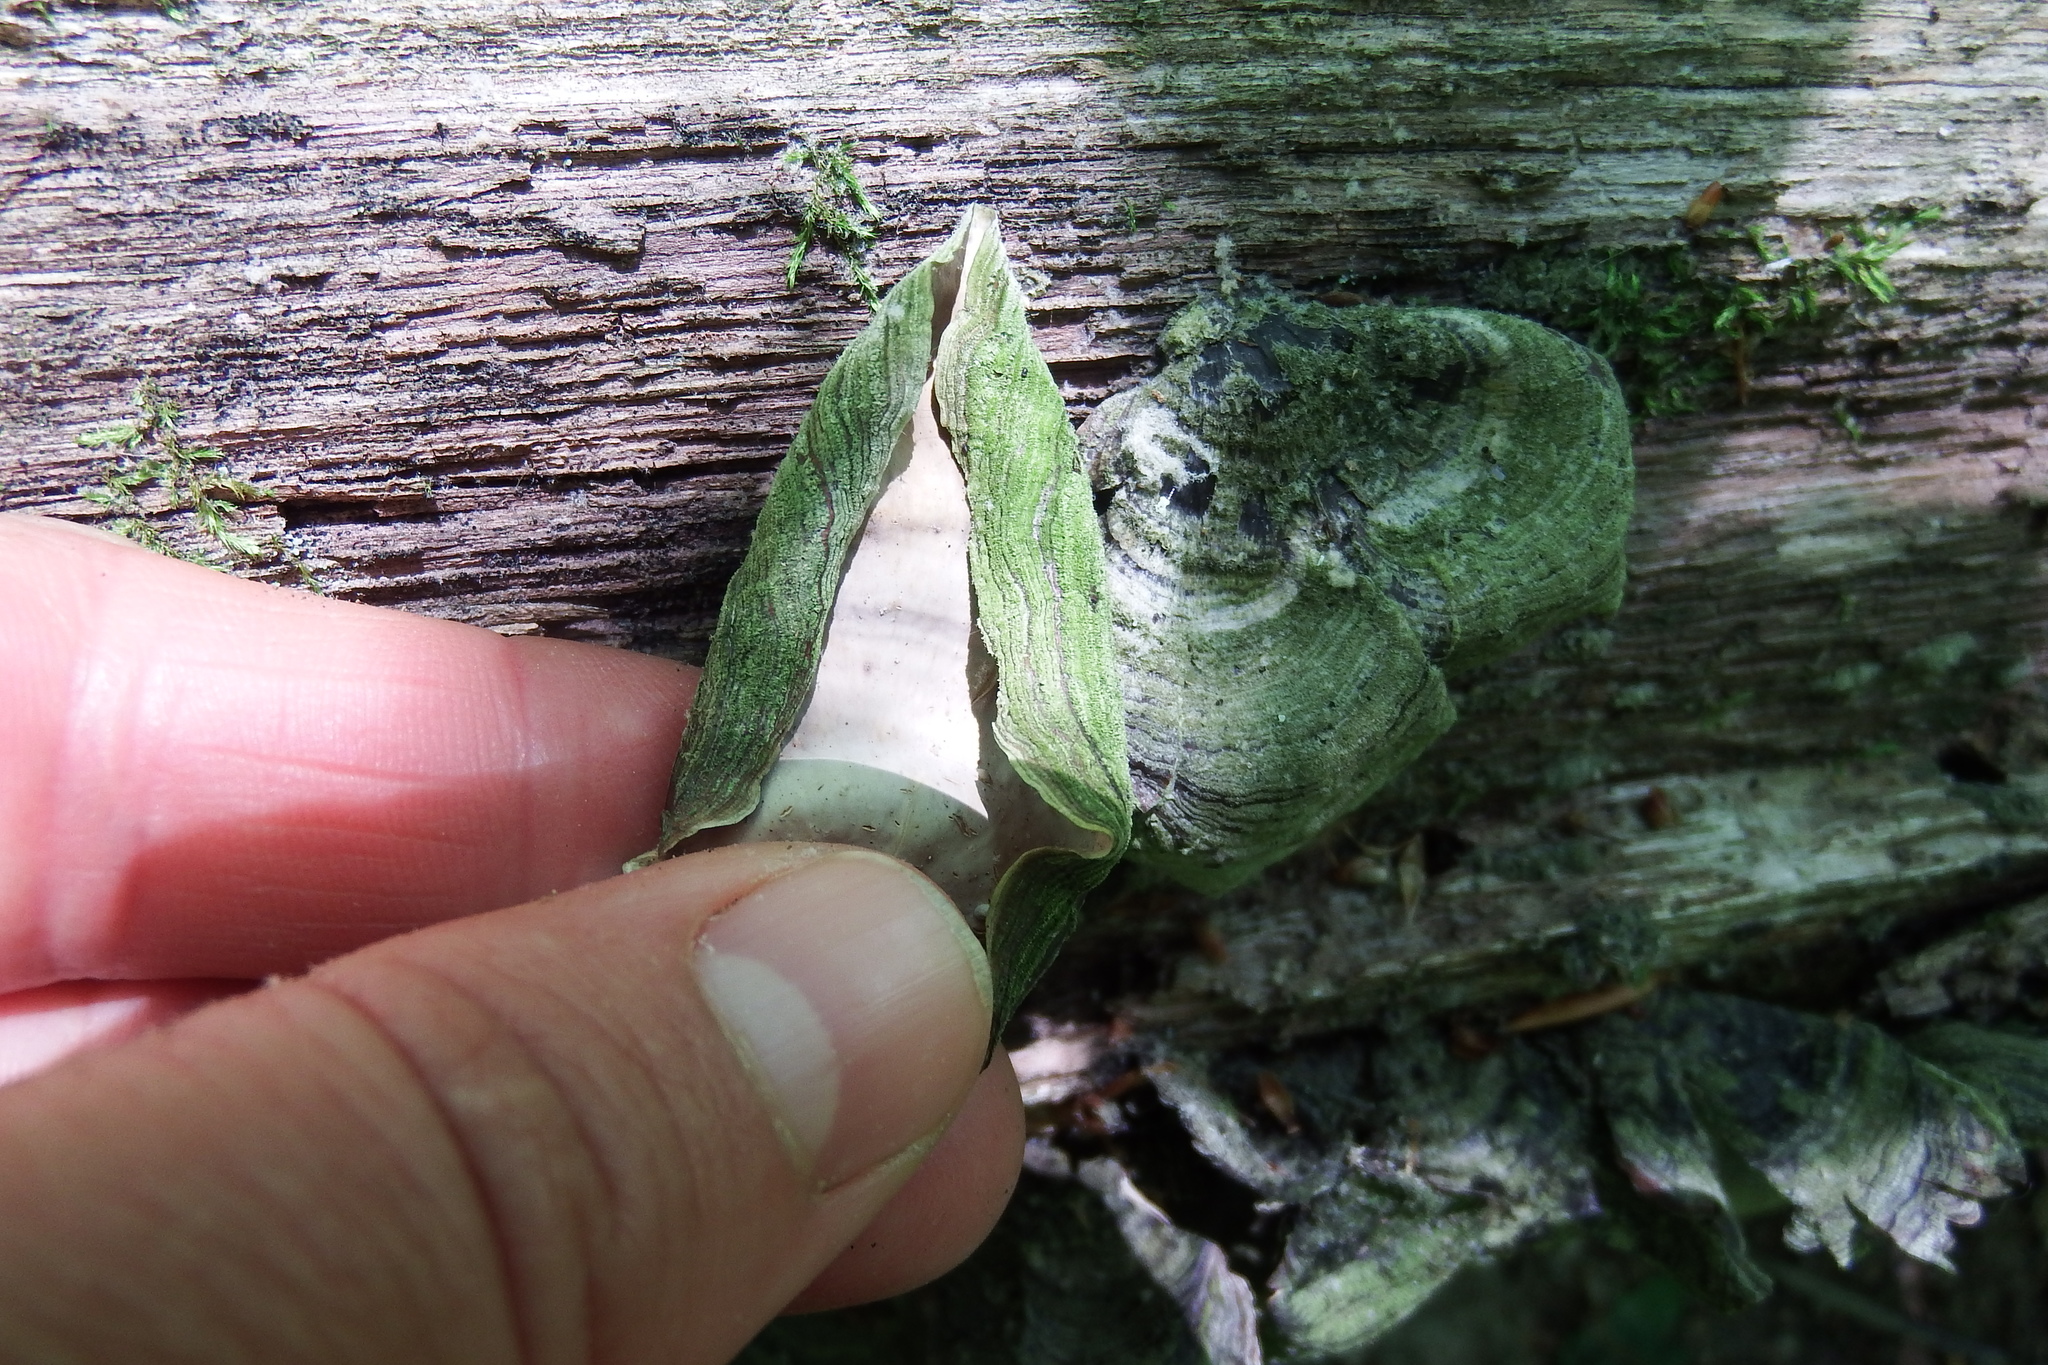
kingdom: Fungi
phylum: Basidiomycota
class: Agaricomycetes
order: Russulales
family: Stereaceae
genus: Stereum
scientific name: Stereum ostrea
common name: False turkeytail
